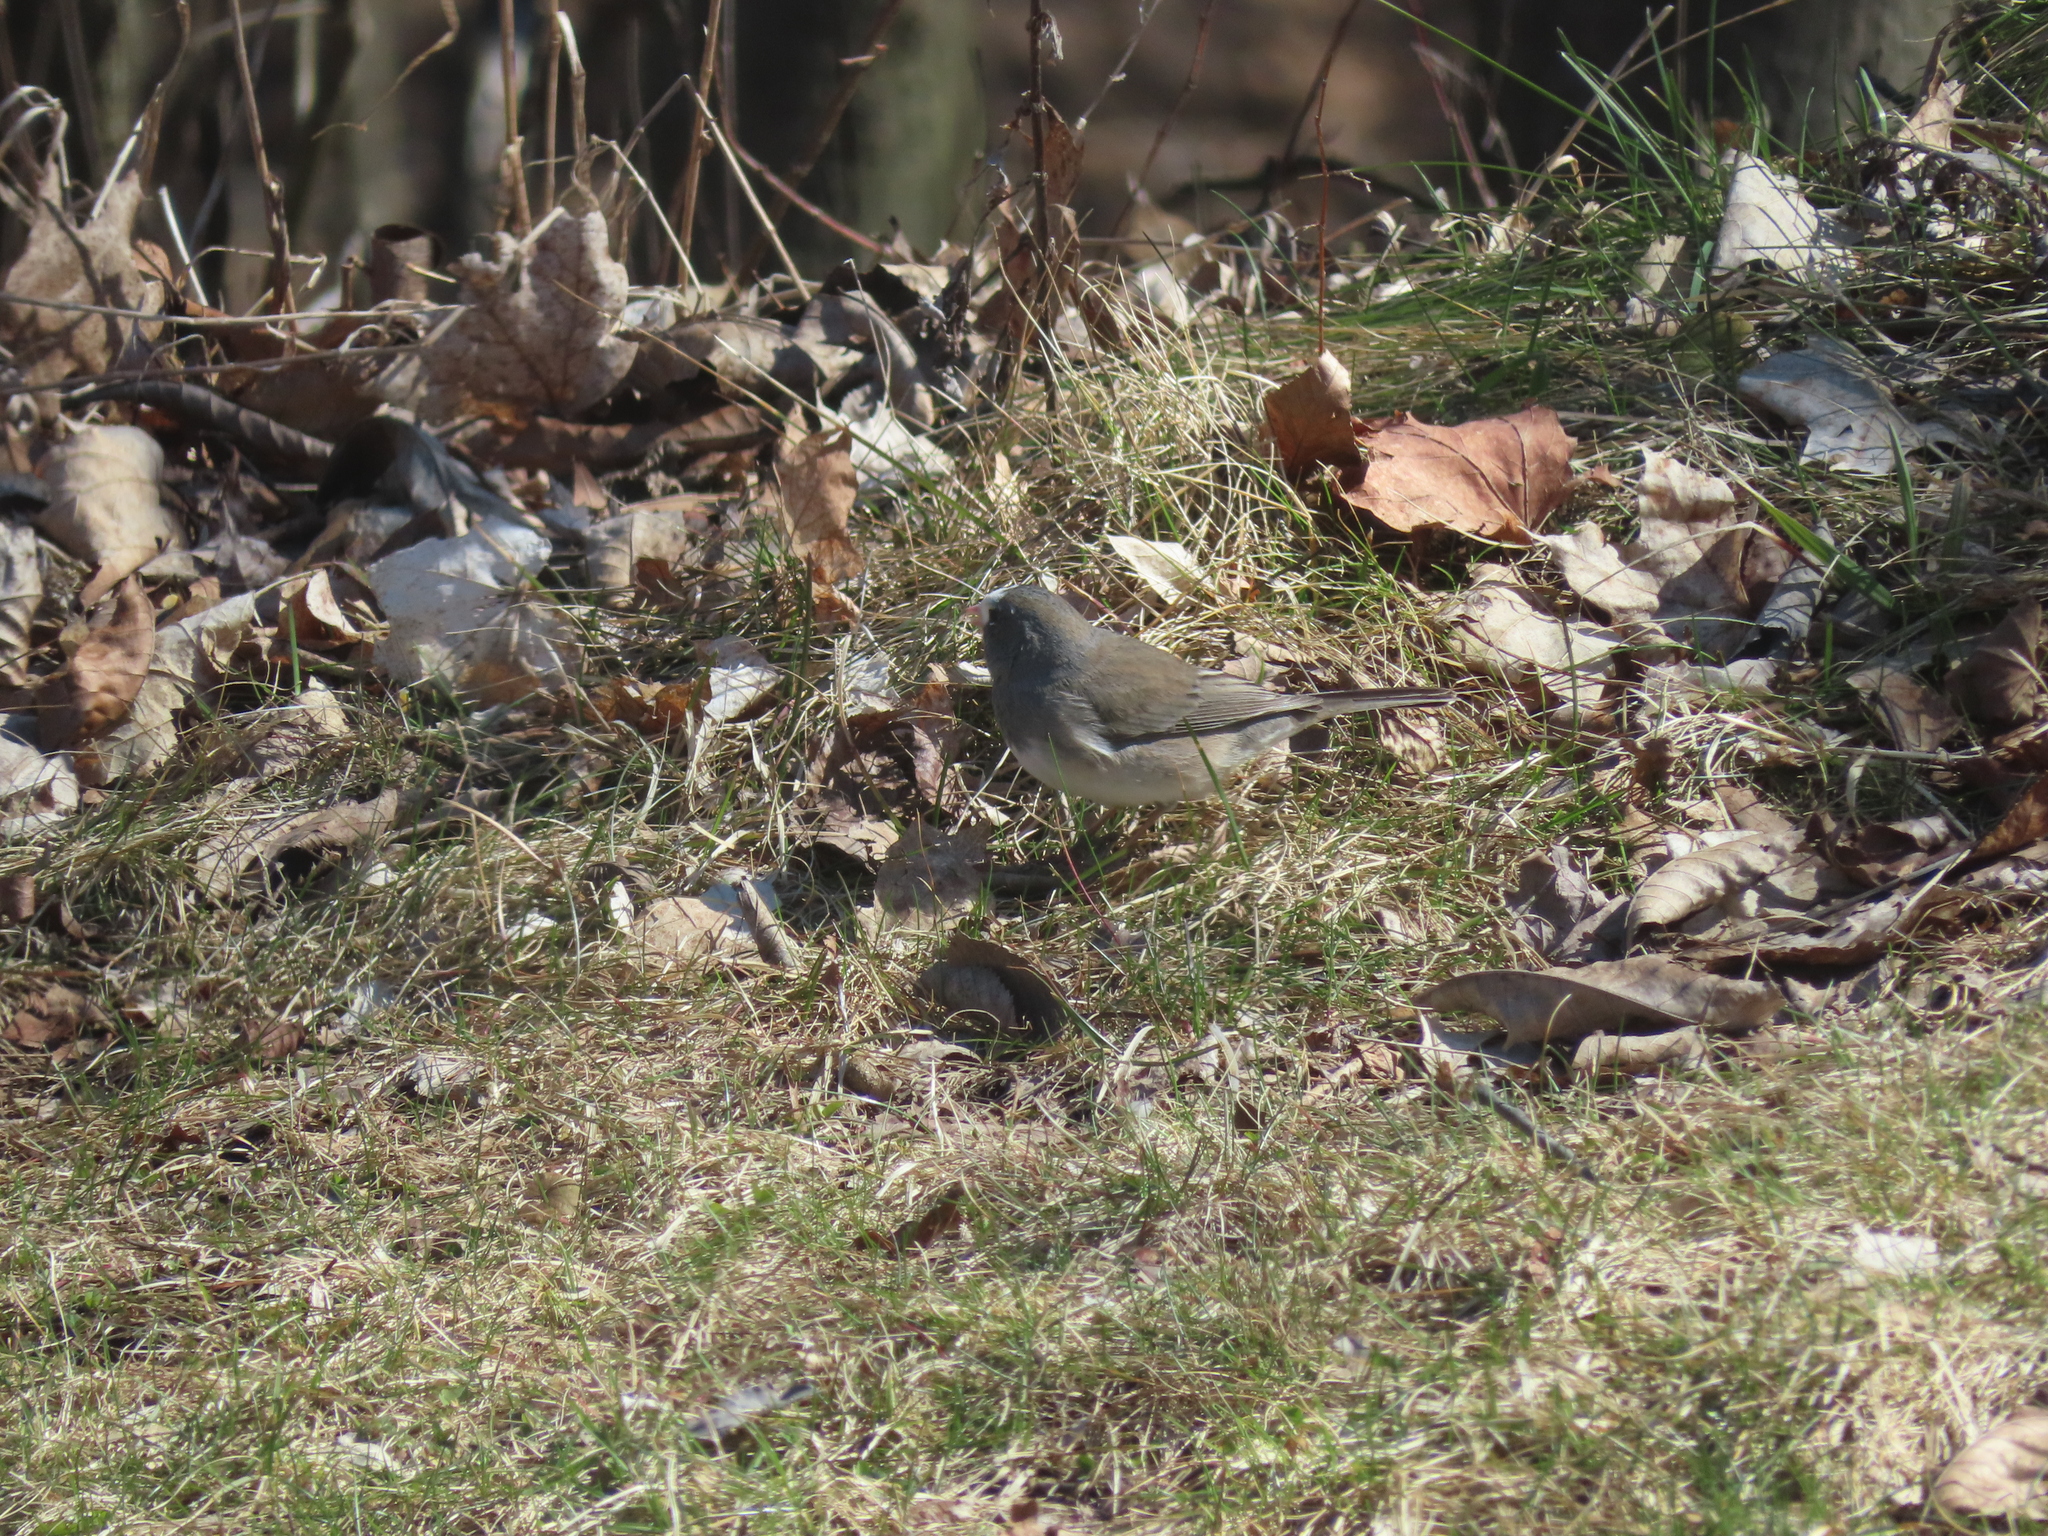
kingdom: Animalia
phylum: Chordata
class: Aves
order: Passeriformes
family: Passerellidae
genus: Junco
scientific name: Junco hyemalis
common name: Dark-eyed junco
